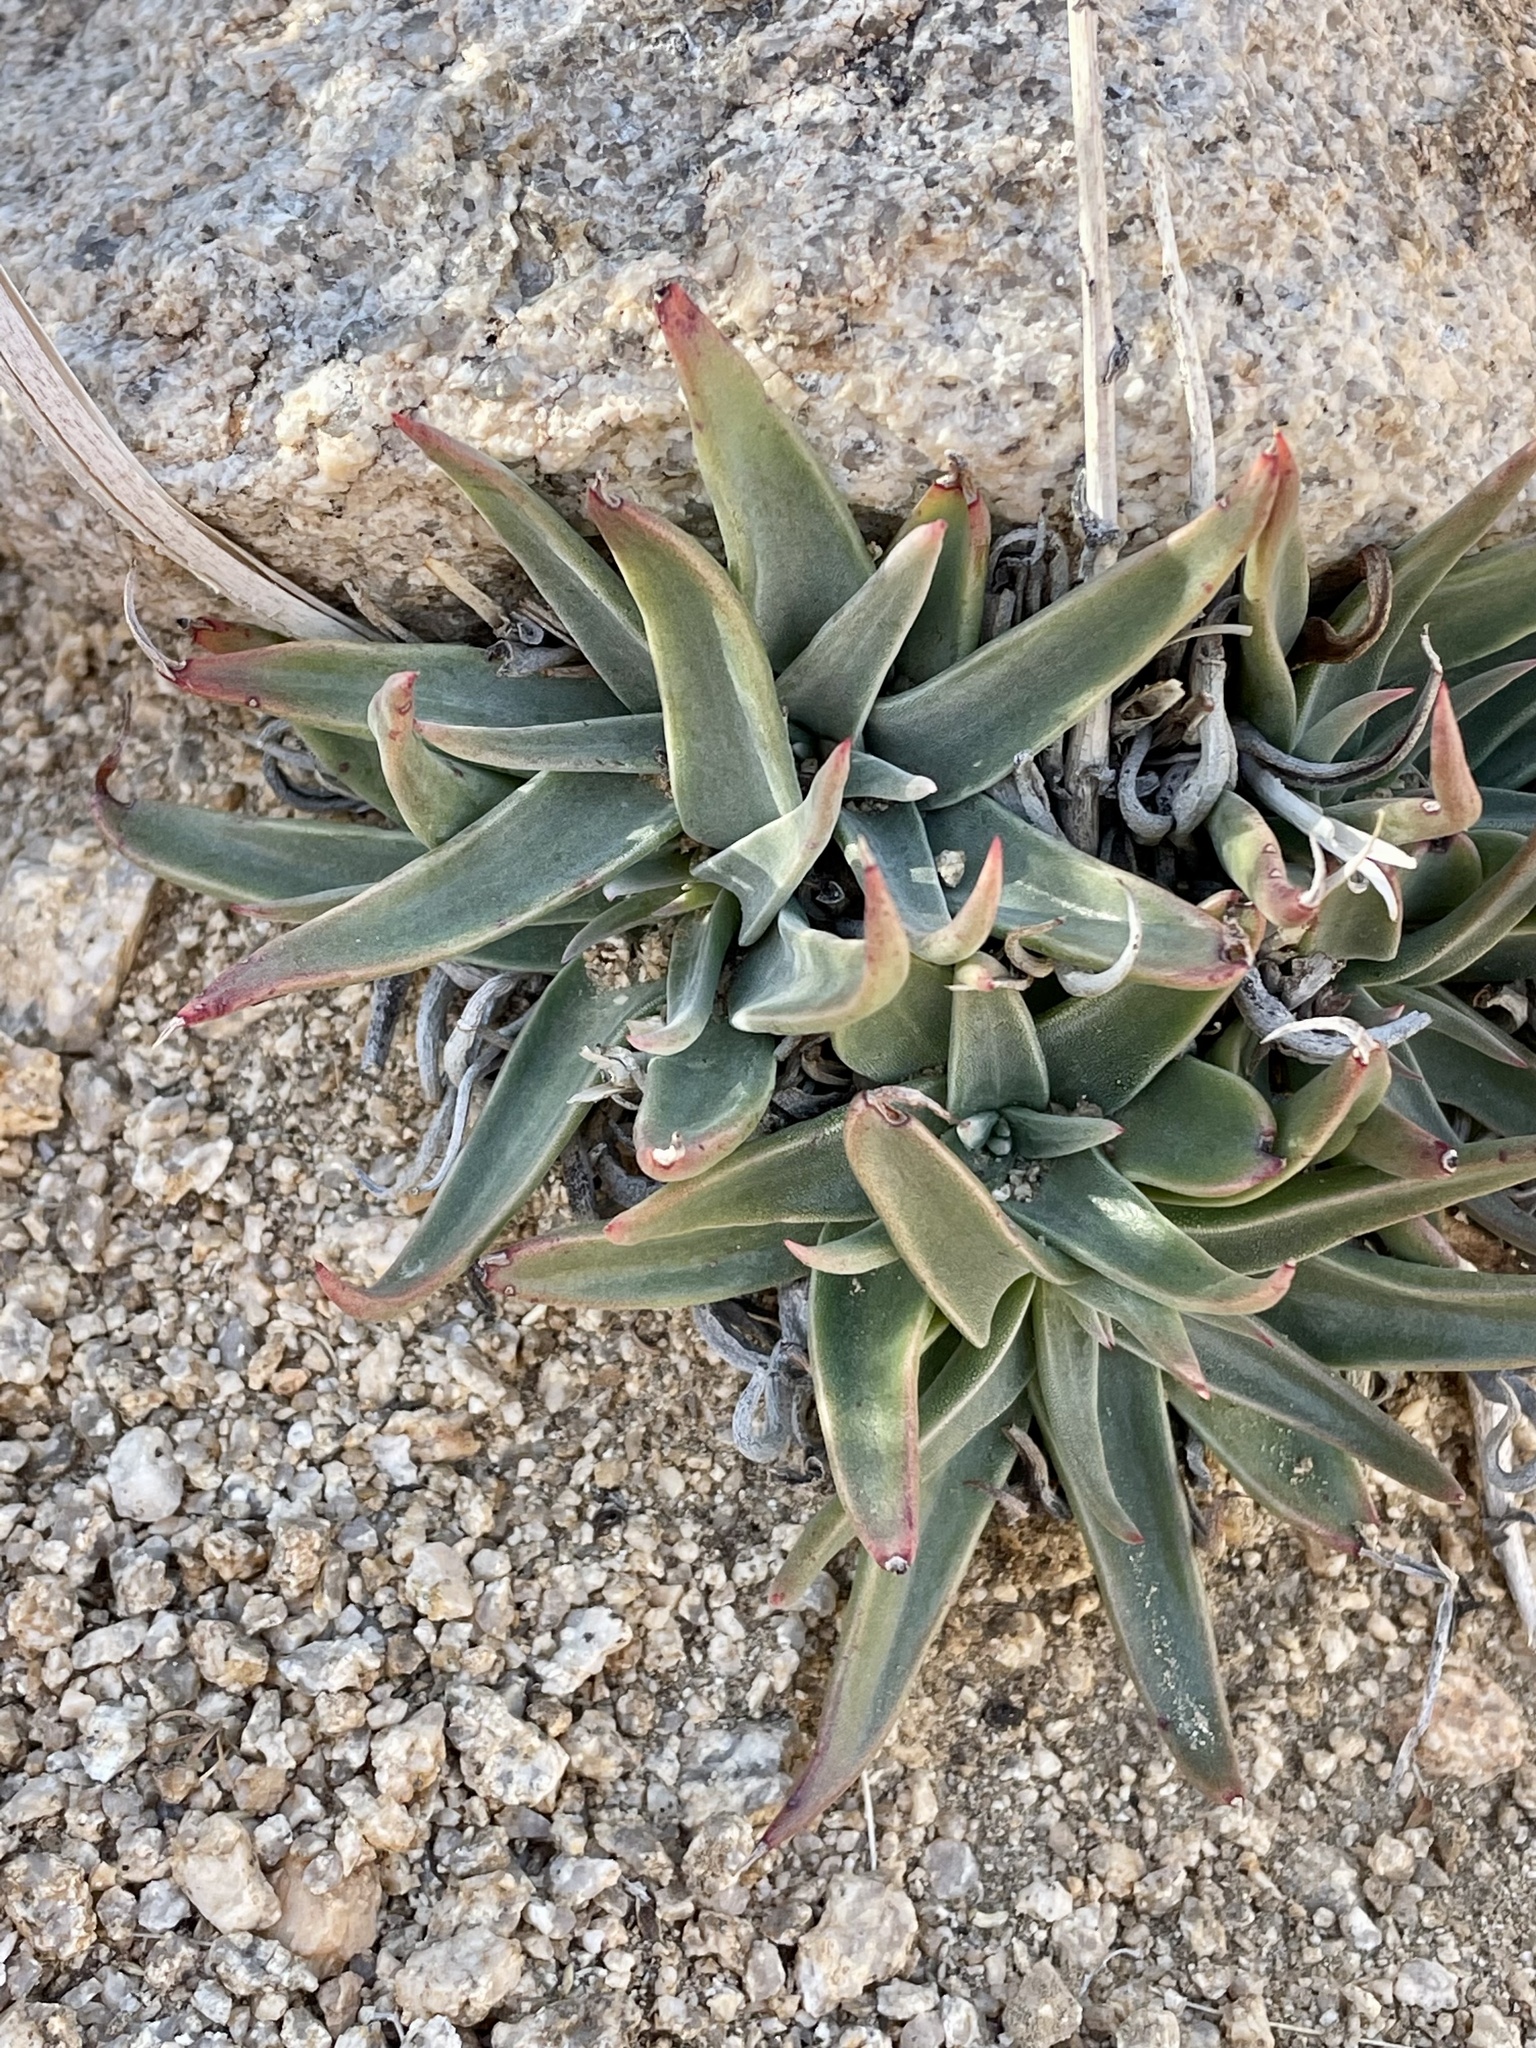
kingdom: Plantae
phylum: Tracheophyta
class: Magnoliopsida
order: Saxifragales
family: Crassulaceae
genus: Dudleya
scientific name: Dudleya saxosa
